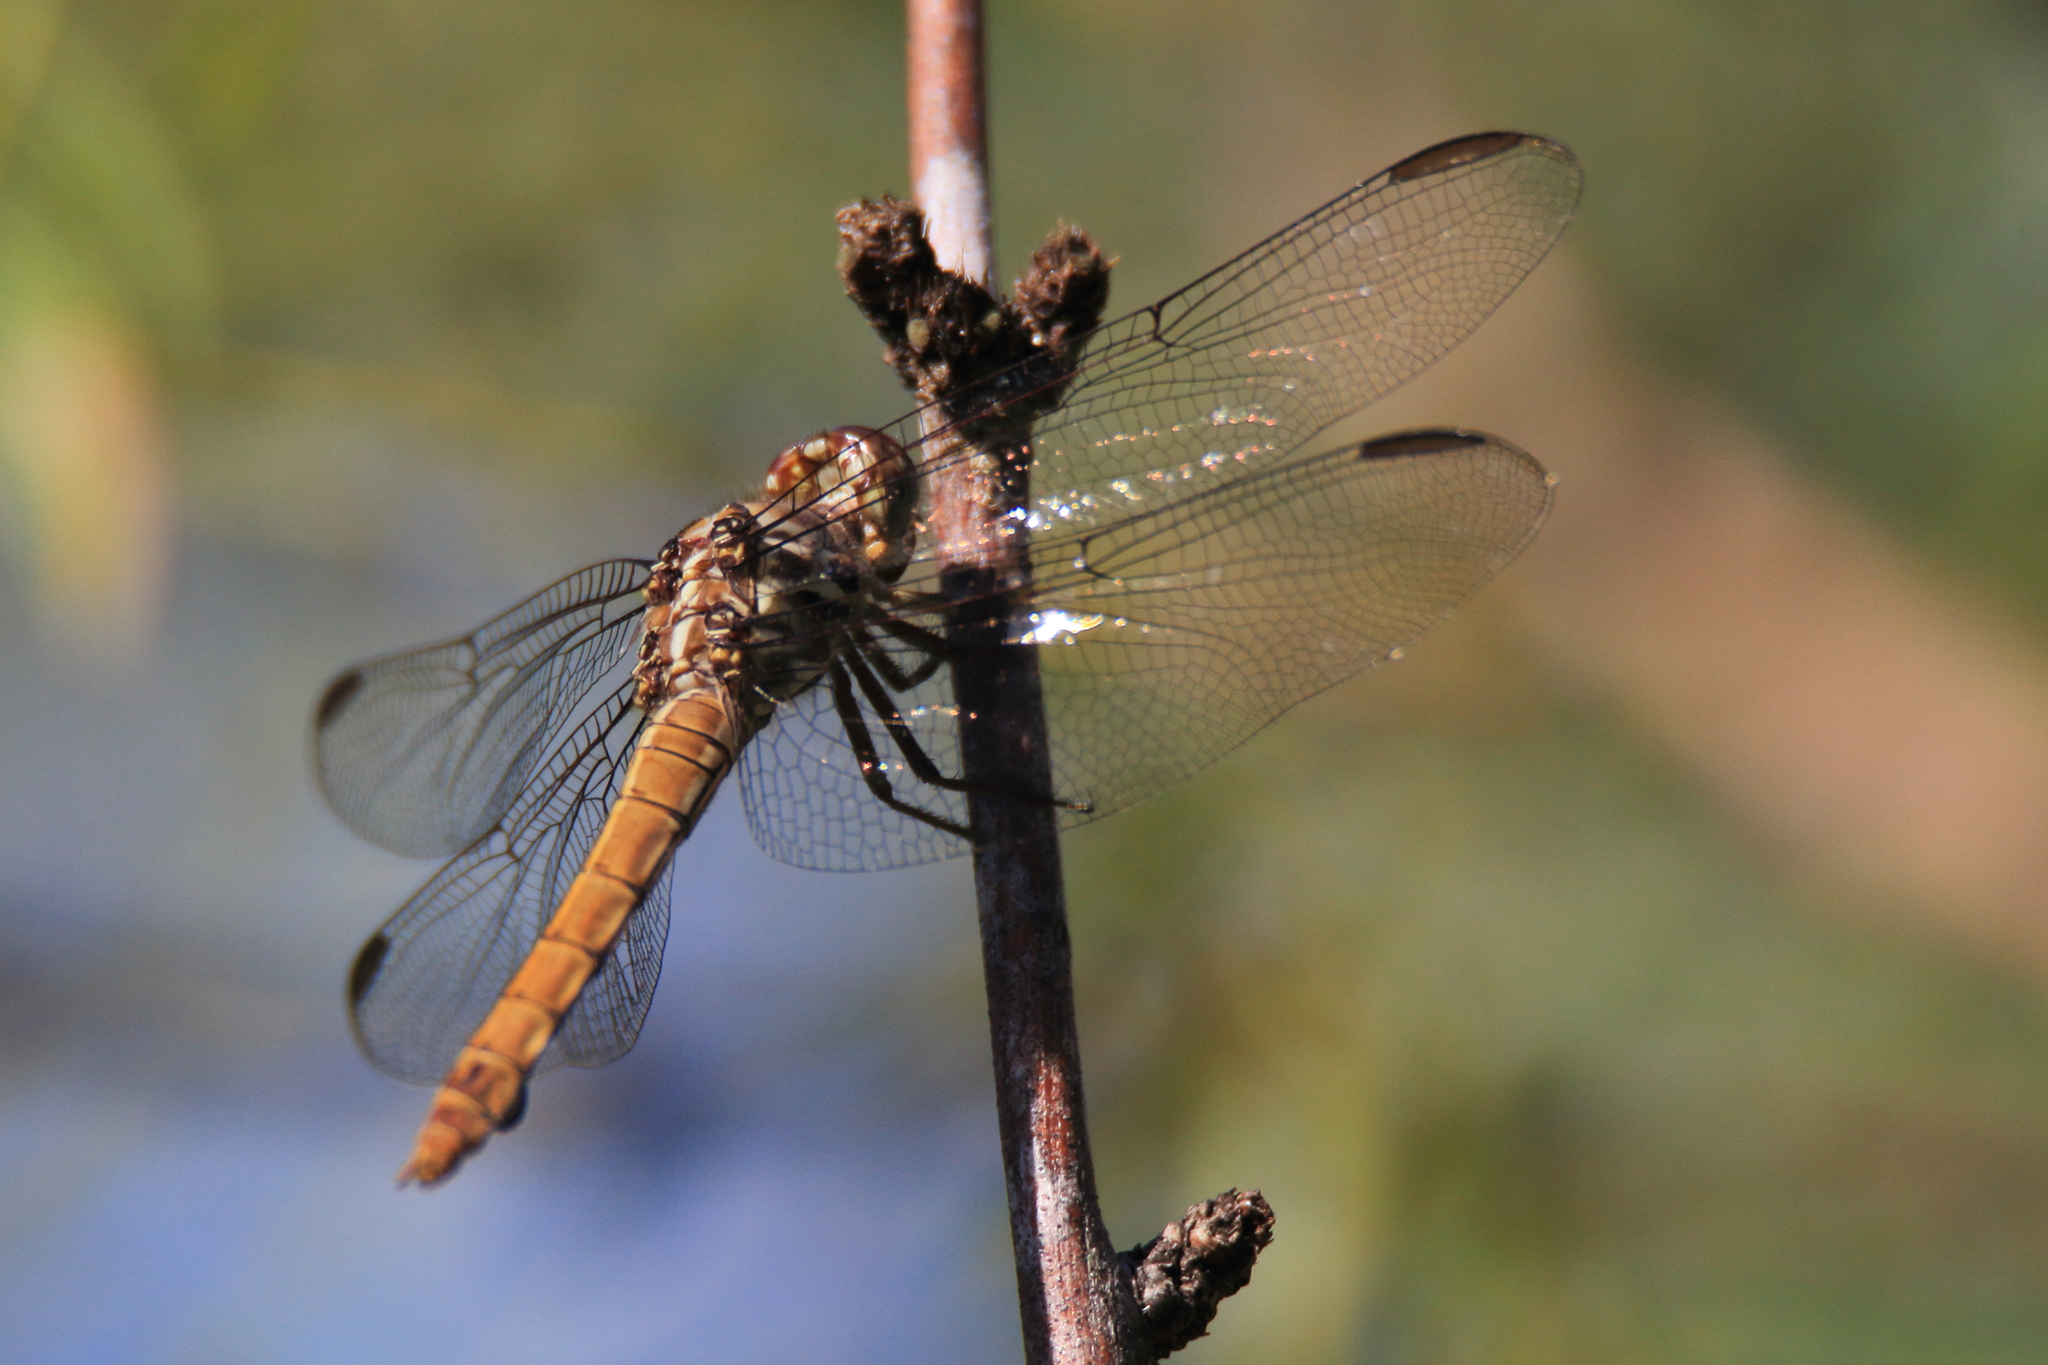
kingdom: Animalia
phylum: Arthropoda
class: Insecta
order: Odonata
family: Libellulidae
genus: Orthemis
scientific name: Orthemis ferruginea
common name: Roseate skimmer
